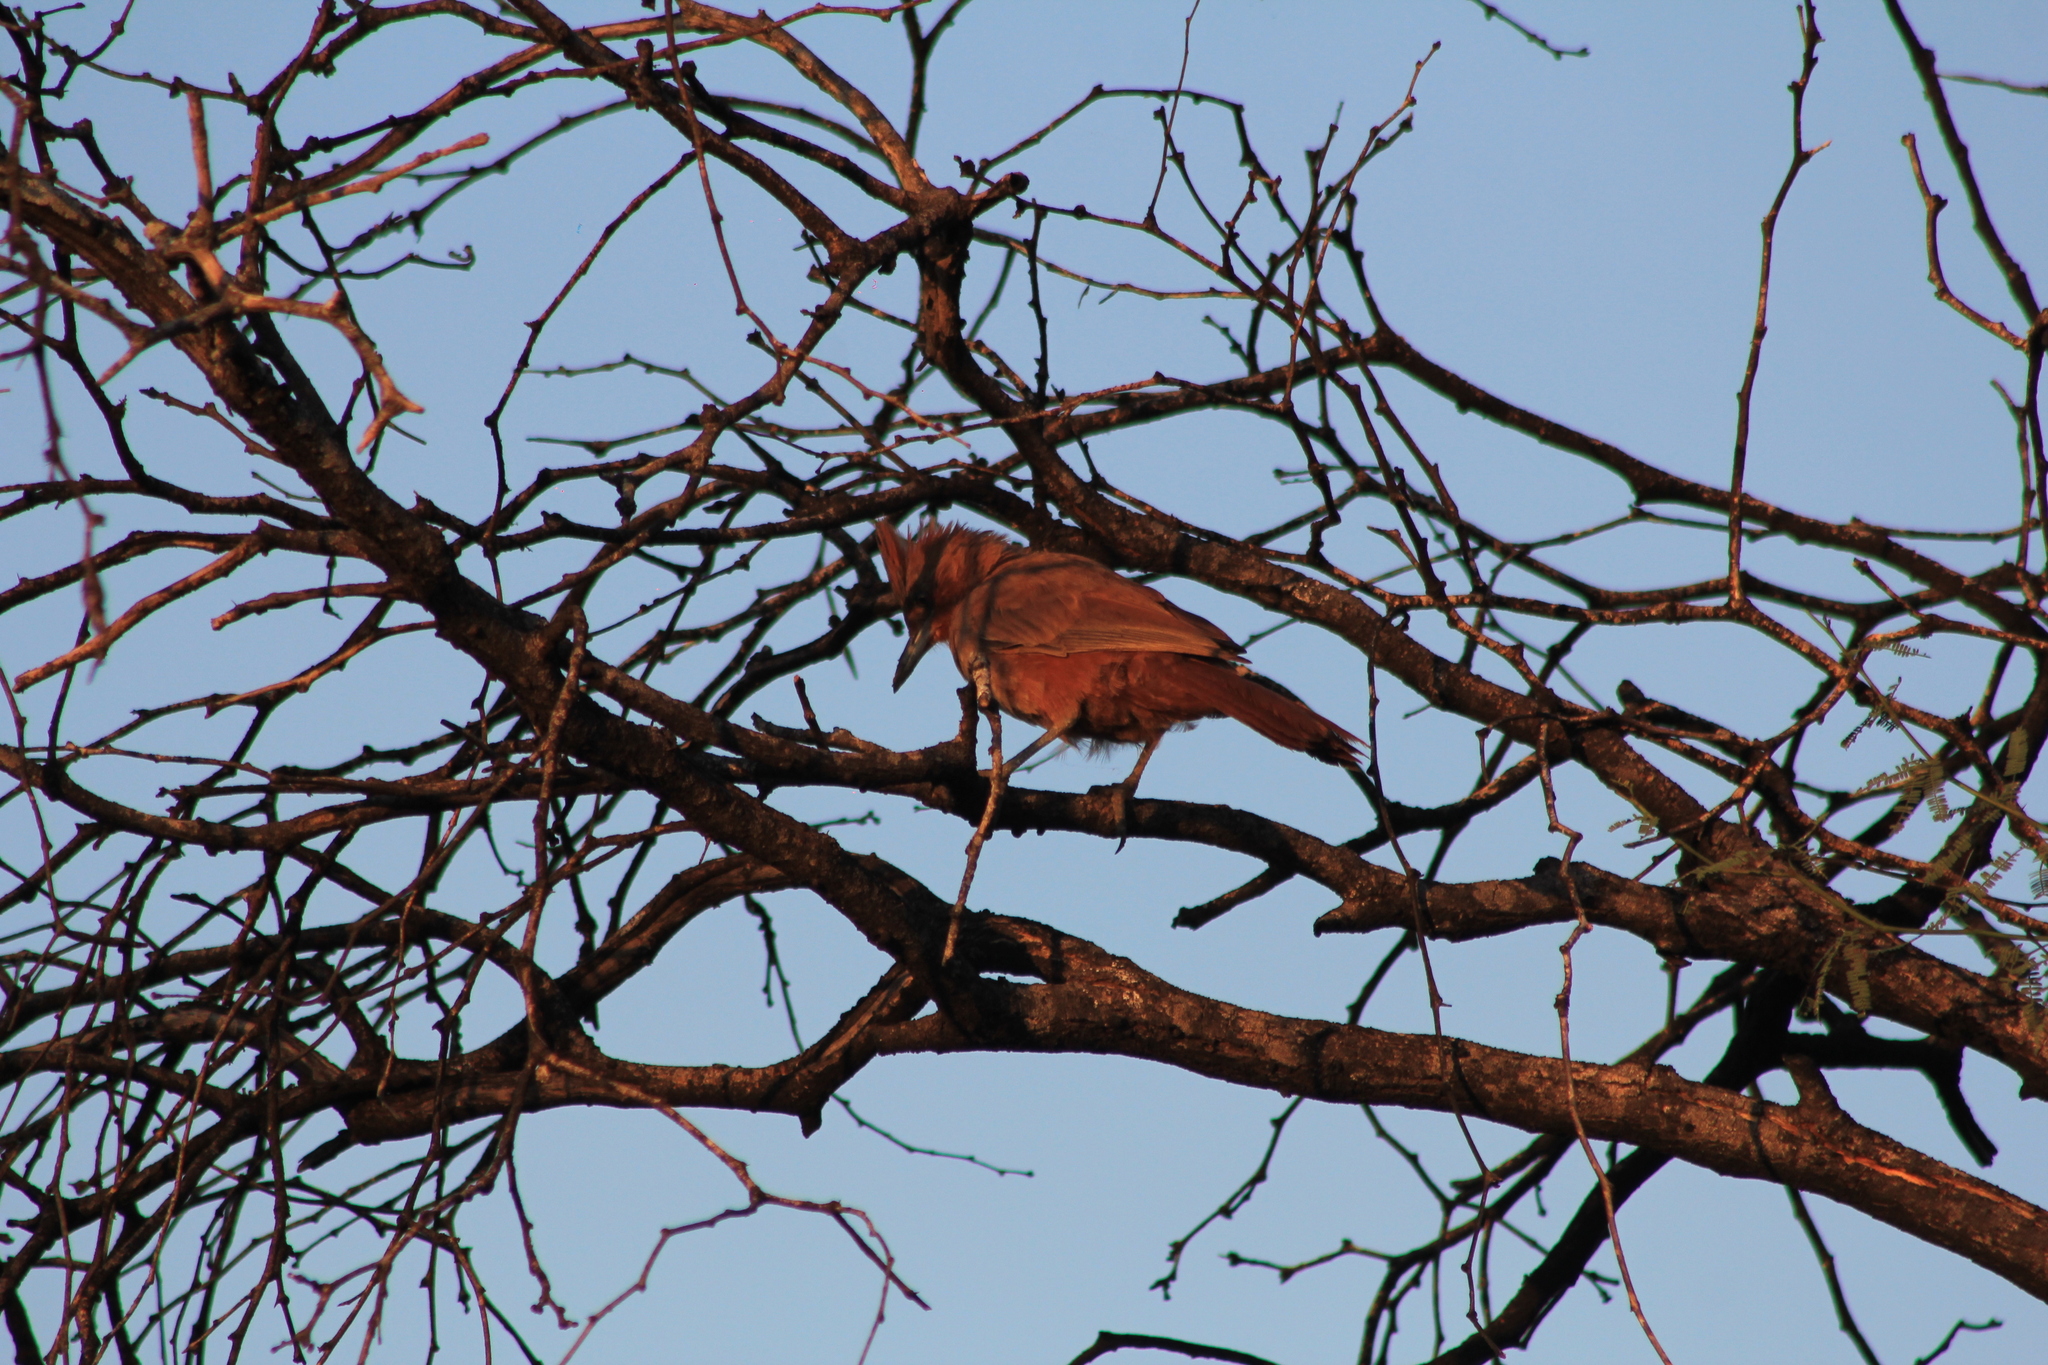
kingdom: Animalia
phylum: Chordata
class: Aves
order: Passeriformes
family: Furnariidae
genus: Pseudoseisura
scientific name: Pseudoseisura lophotes
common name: Brown cacholote
